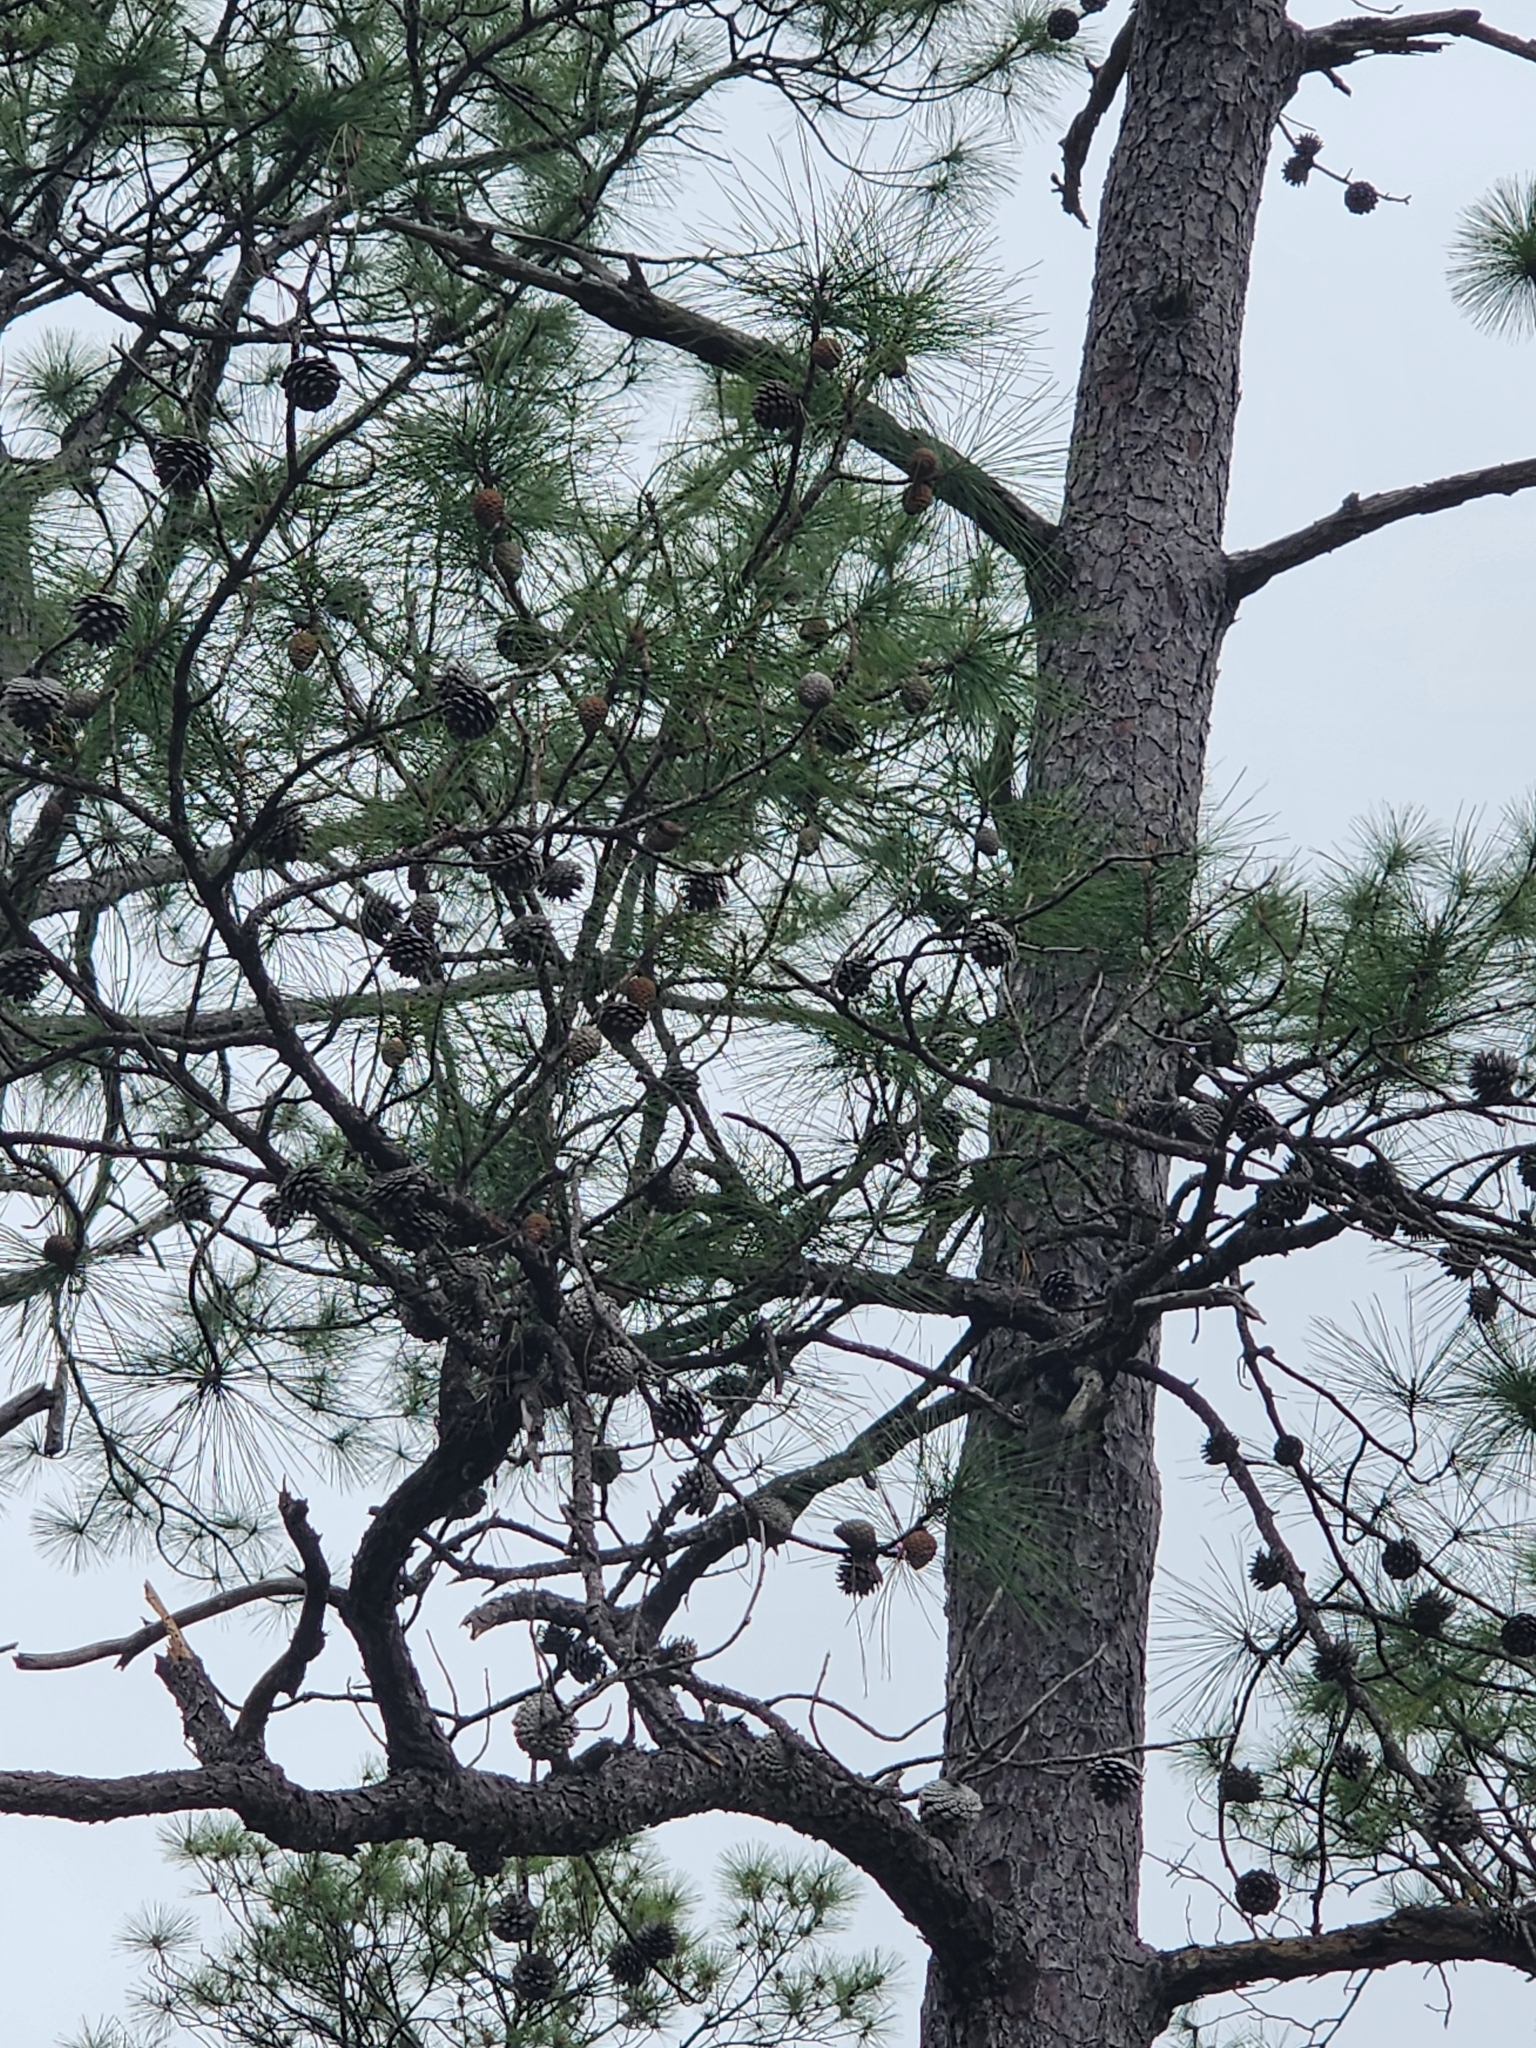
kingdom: Plantae
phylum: Tracheophyta
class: Pinopsida
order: Pinales
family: Pinaceae
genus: Pinus
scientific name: Pinus serotina
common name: Marsh pine
